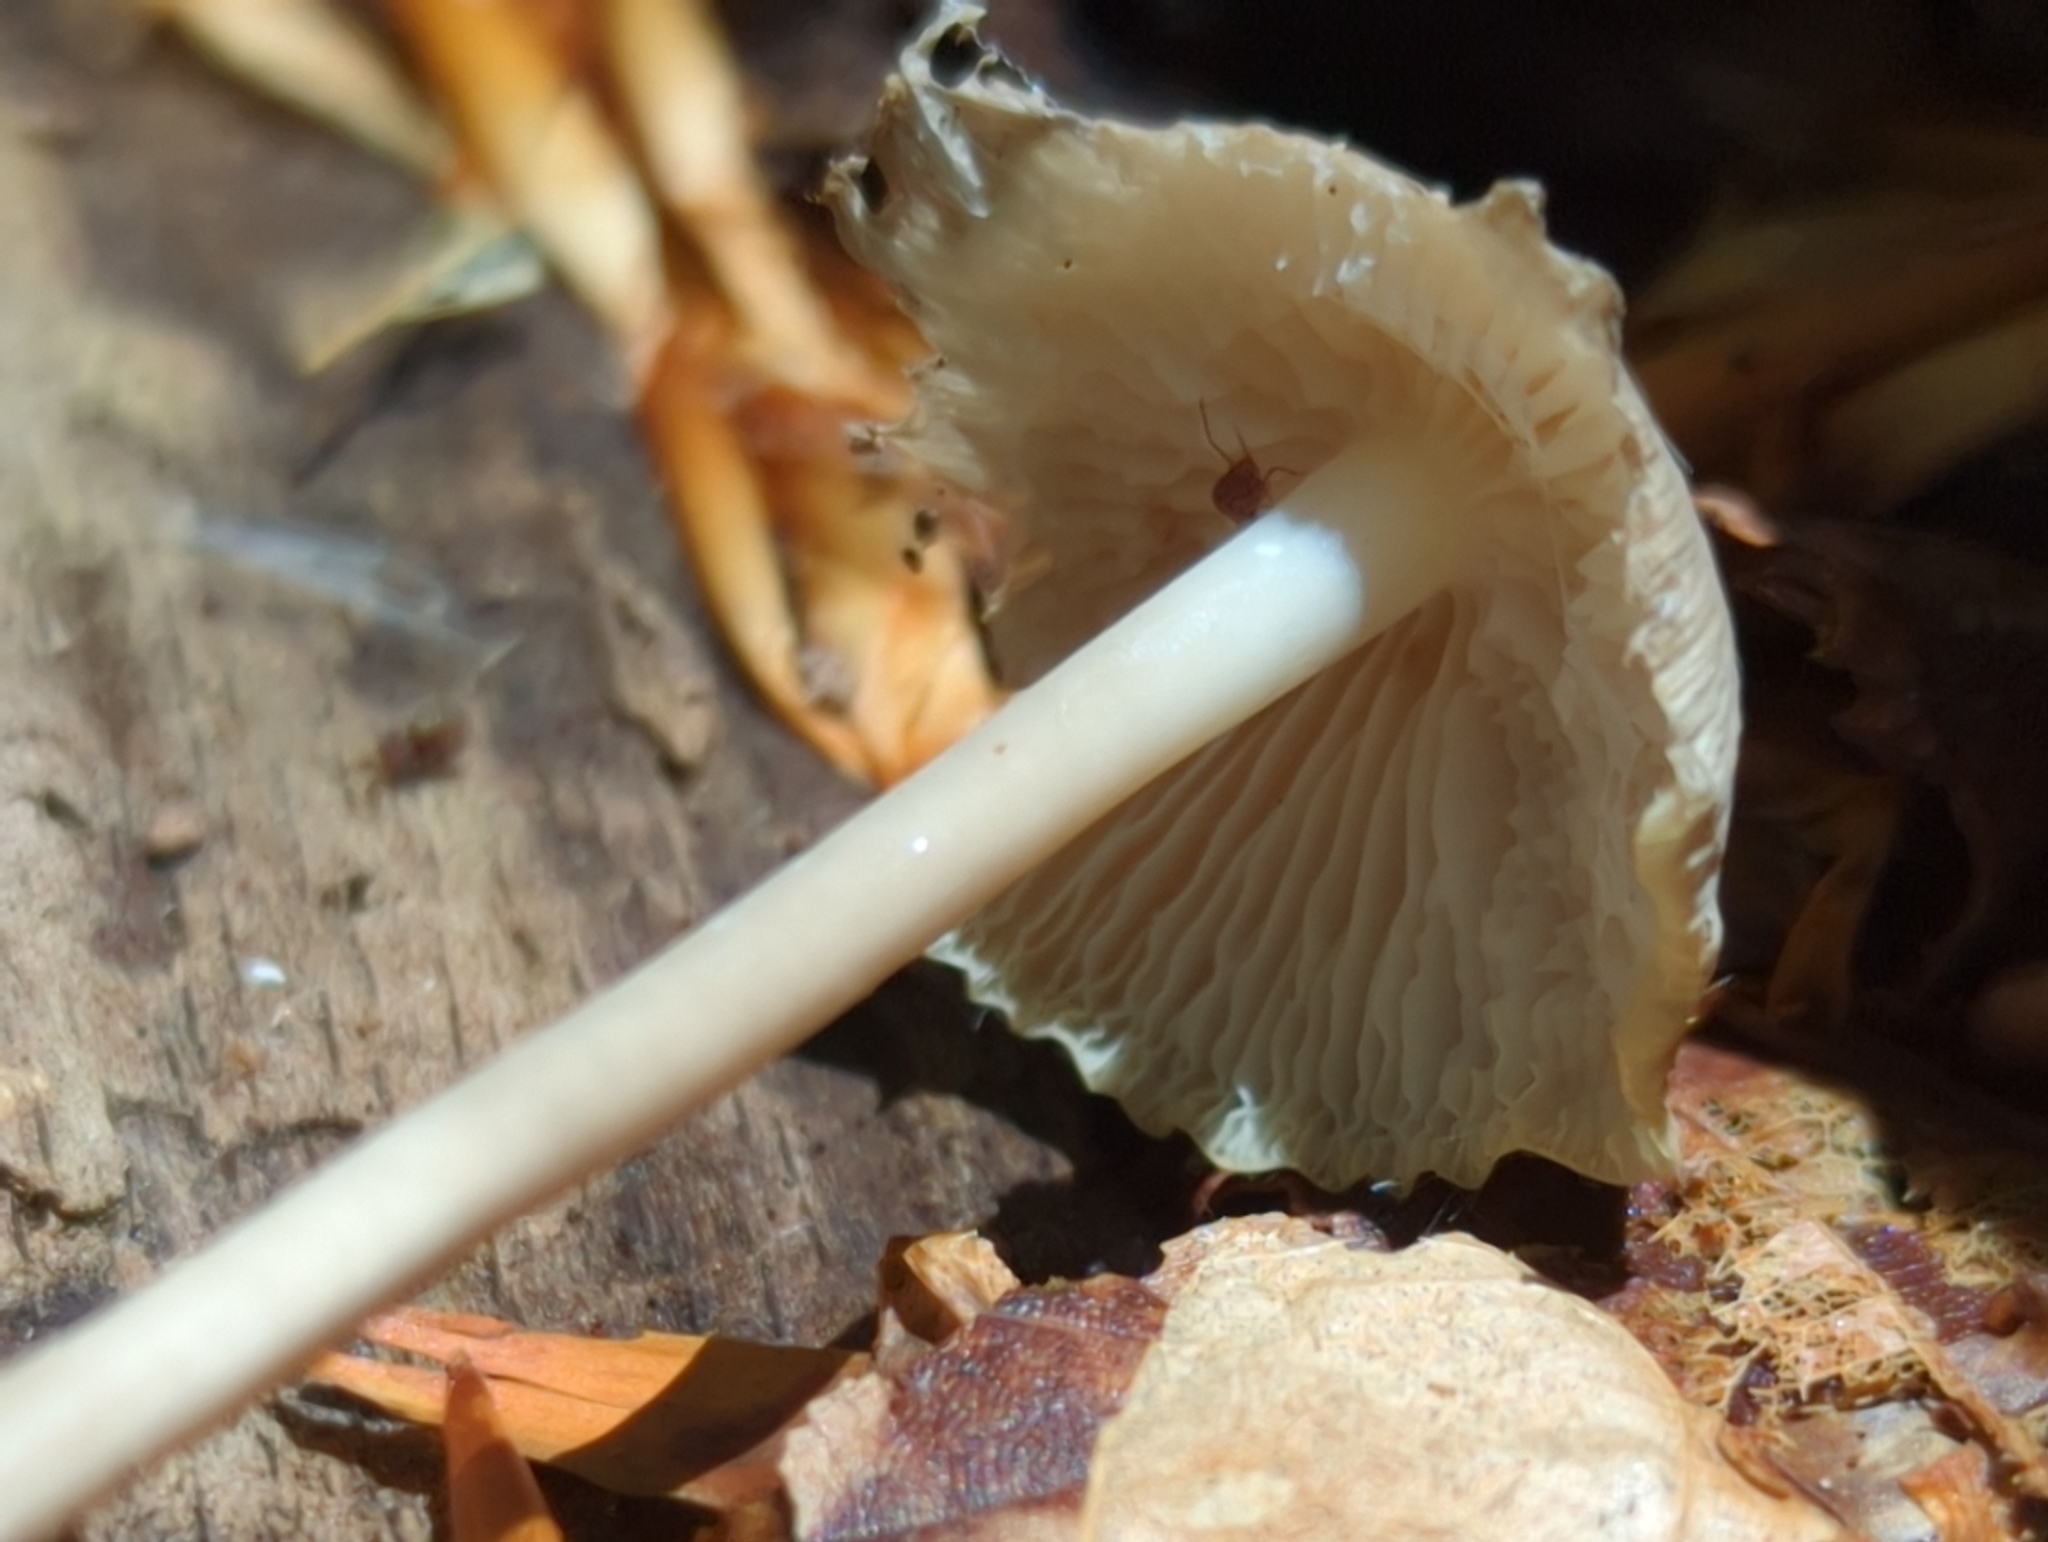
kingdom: Fungi
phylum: Basidiomycota
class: Agaricomycetes
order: Agaricales
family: Mycenaceae
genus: Mycena
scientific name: Mycena galericulata
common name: Bonnet mycena
